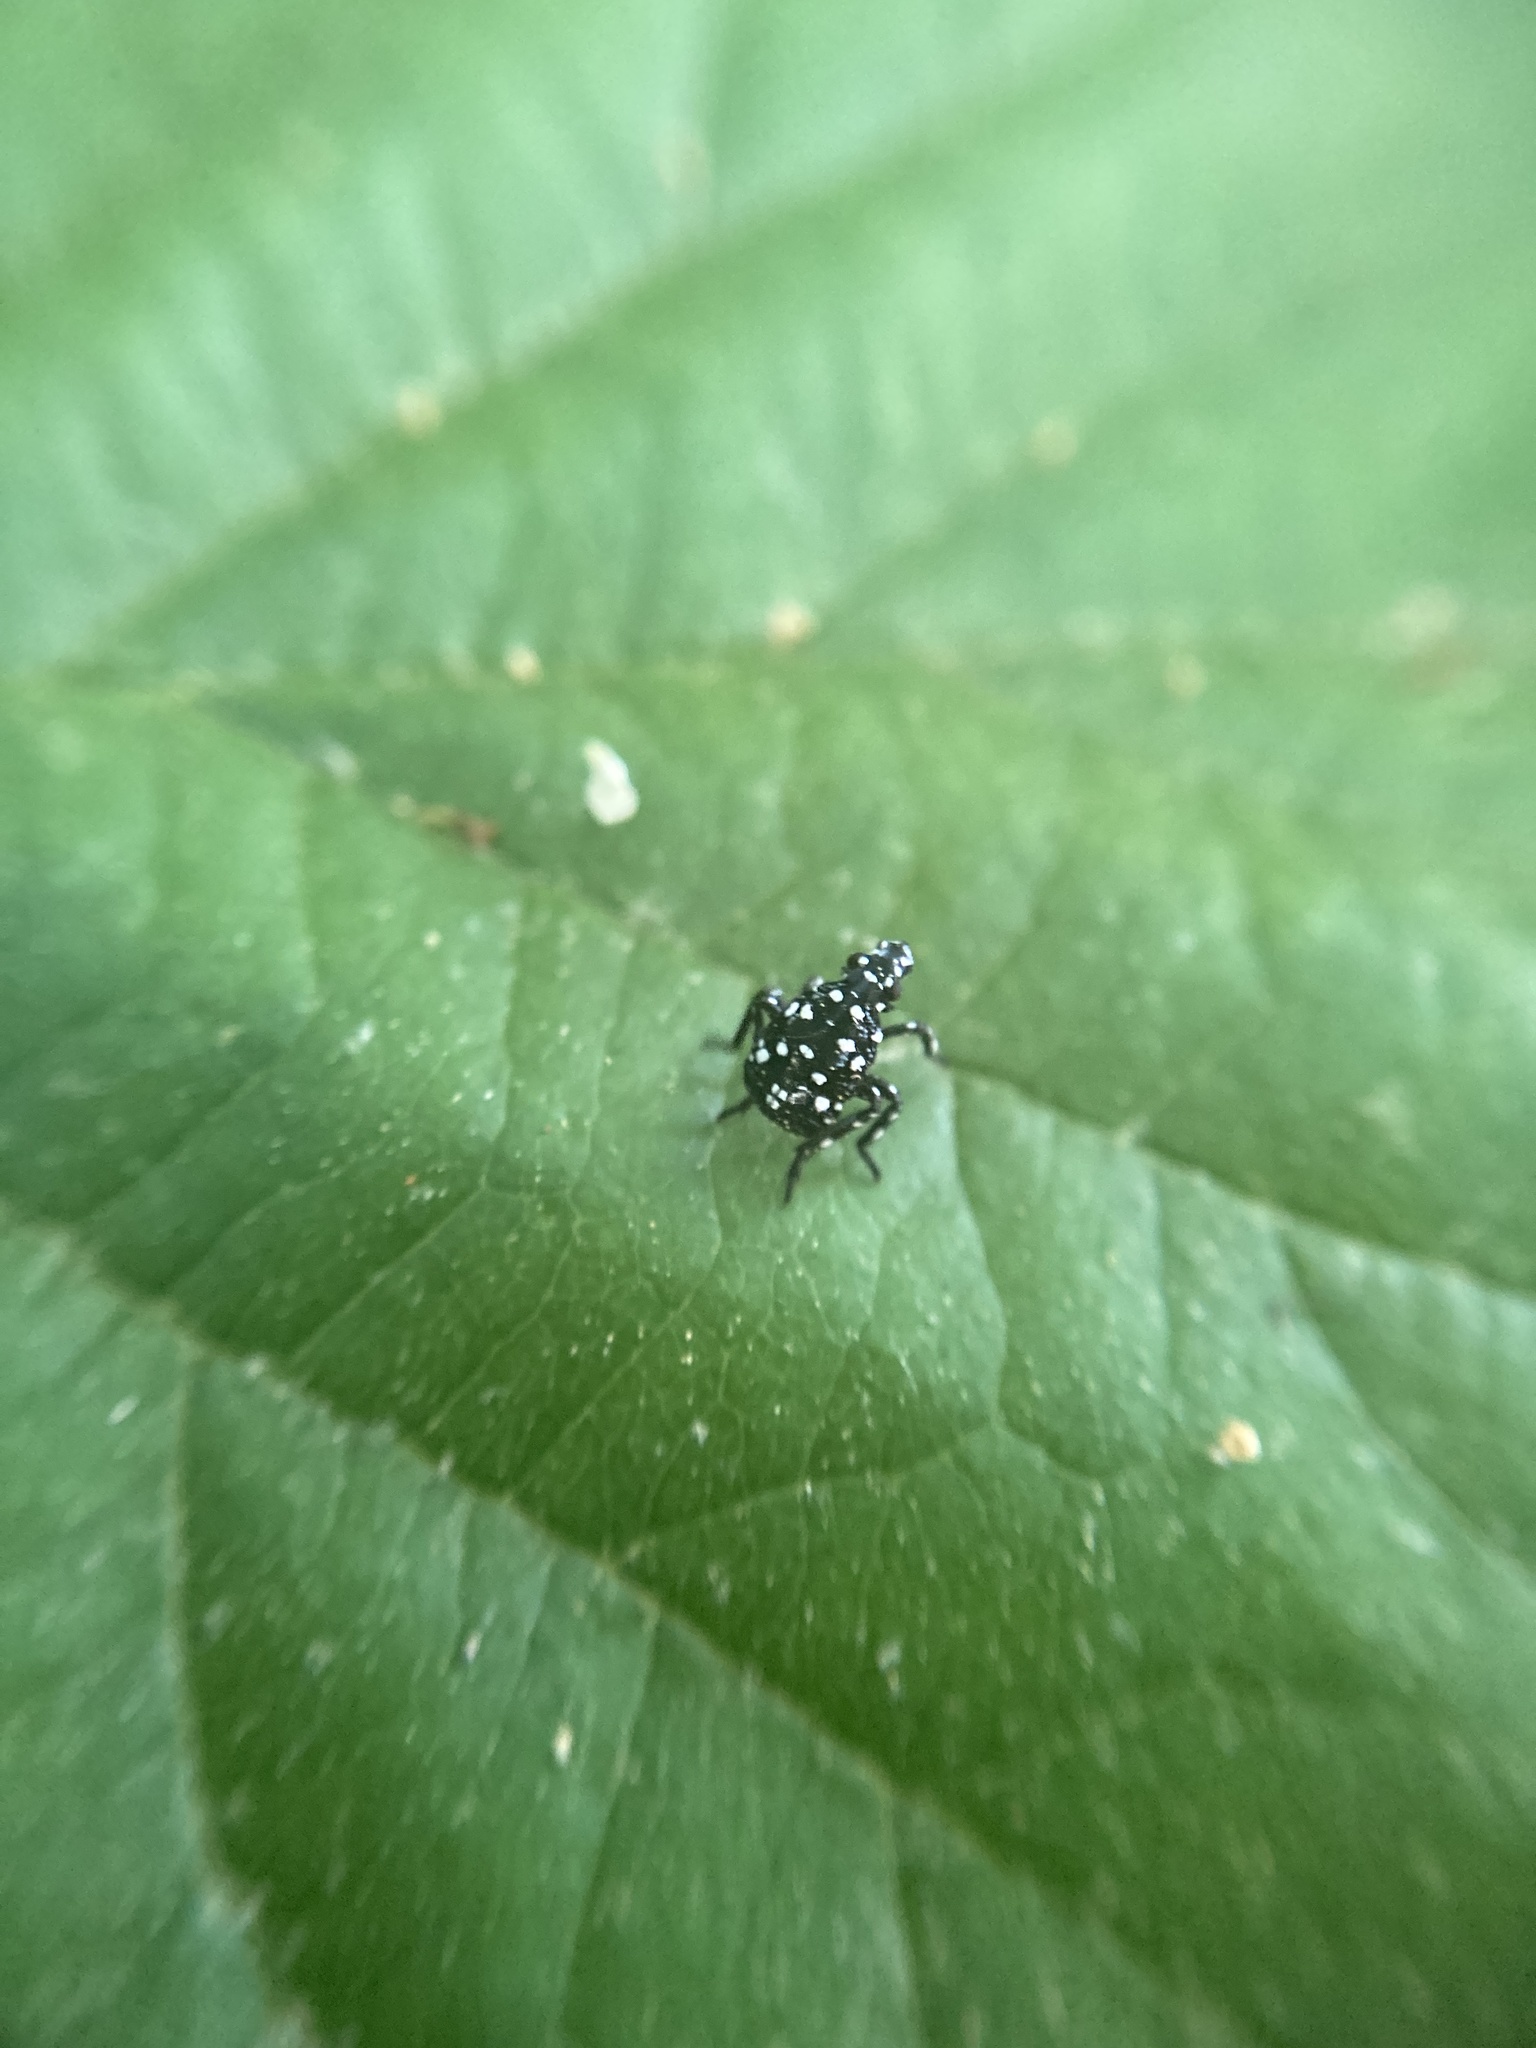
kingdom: Animalia
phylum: Arthropoda
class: Insecta
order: Hemiptera
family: Fulgoridae
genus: Lycorma
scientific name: Lycorma delicatula
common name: Spotted lanternfly
